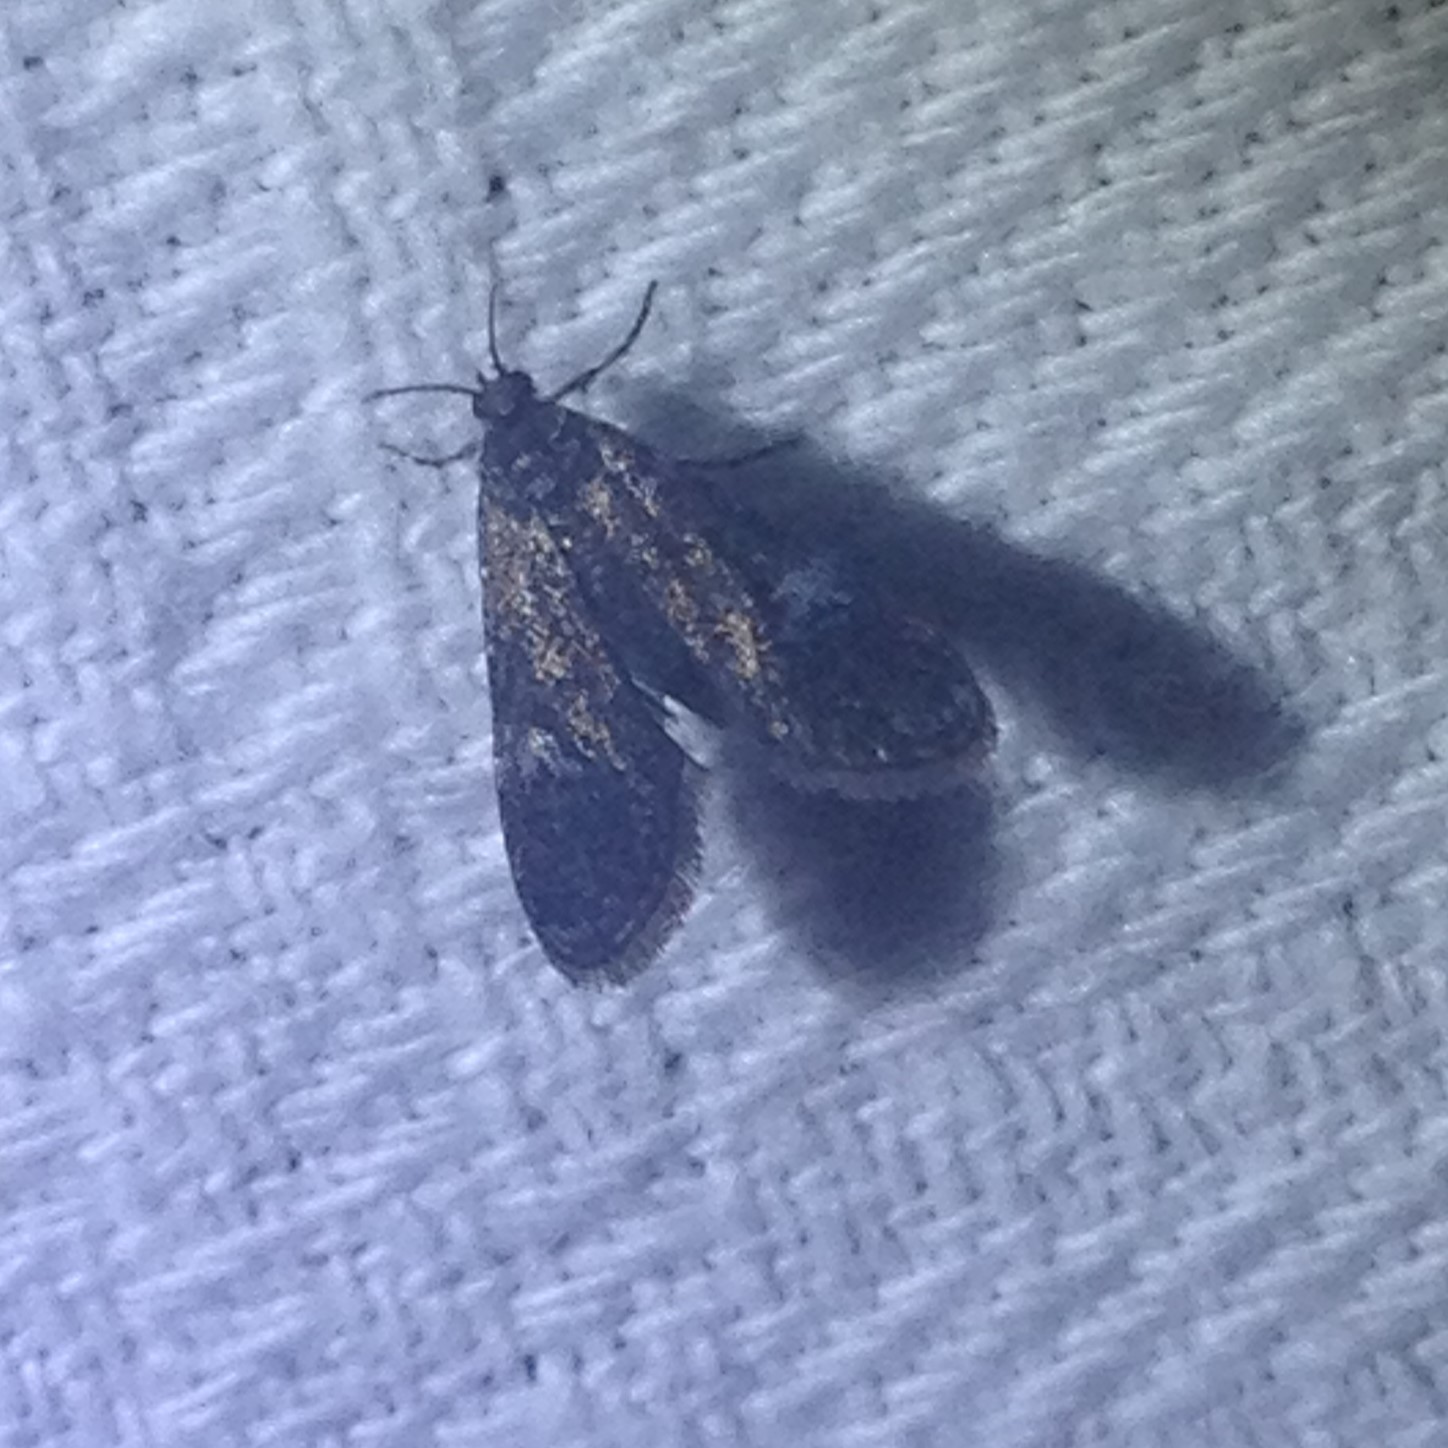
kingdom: Animalia
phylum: Arthropoda
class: Insecta
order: Lepidoptera
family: Crambidae
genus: Elophila
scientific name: Elophila tinealis
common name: Black duckweed moth
